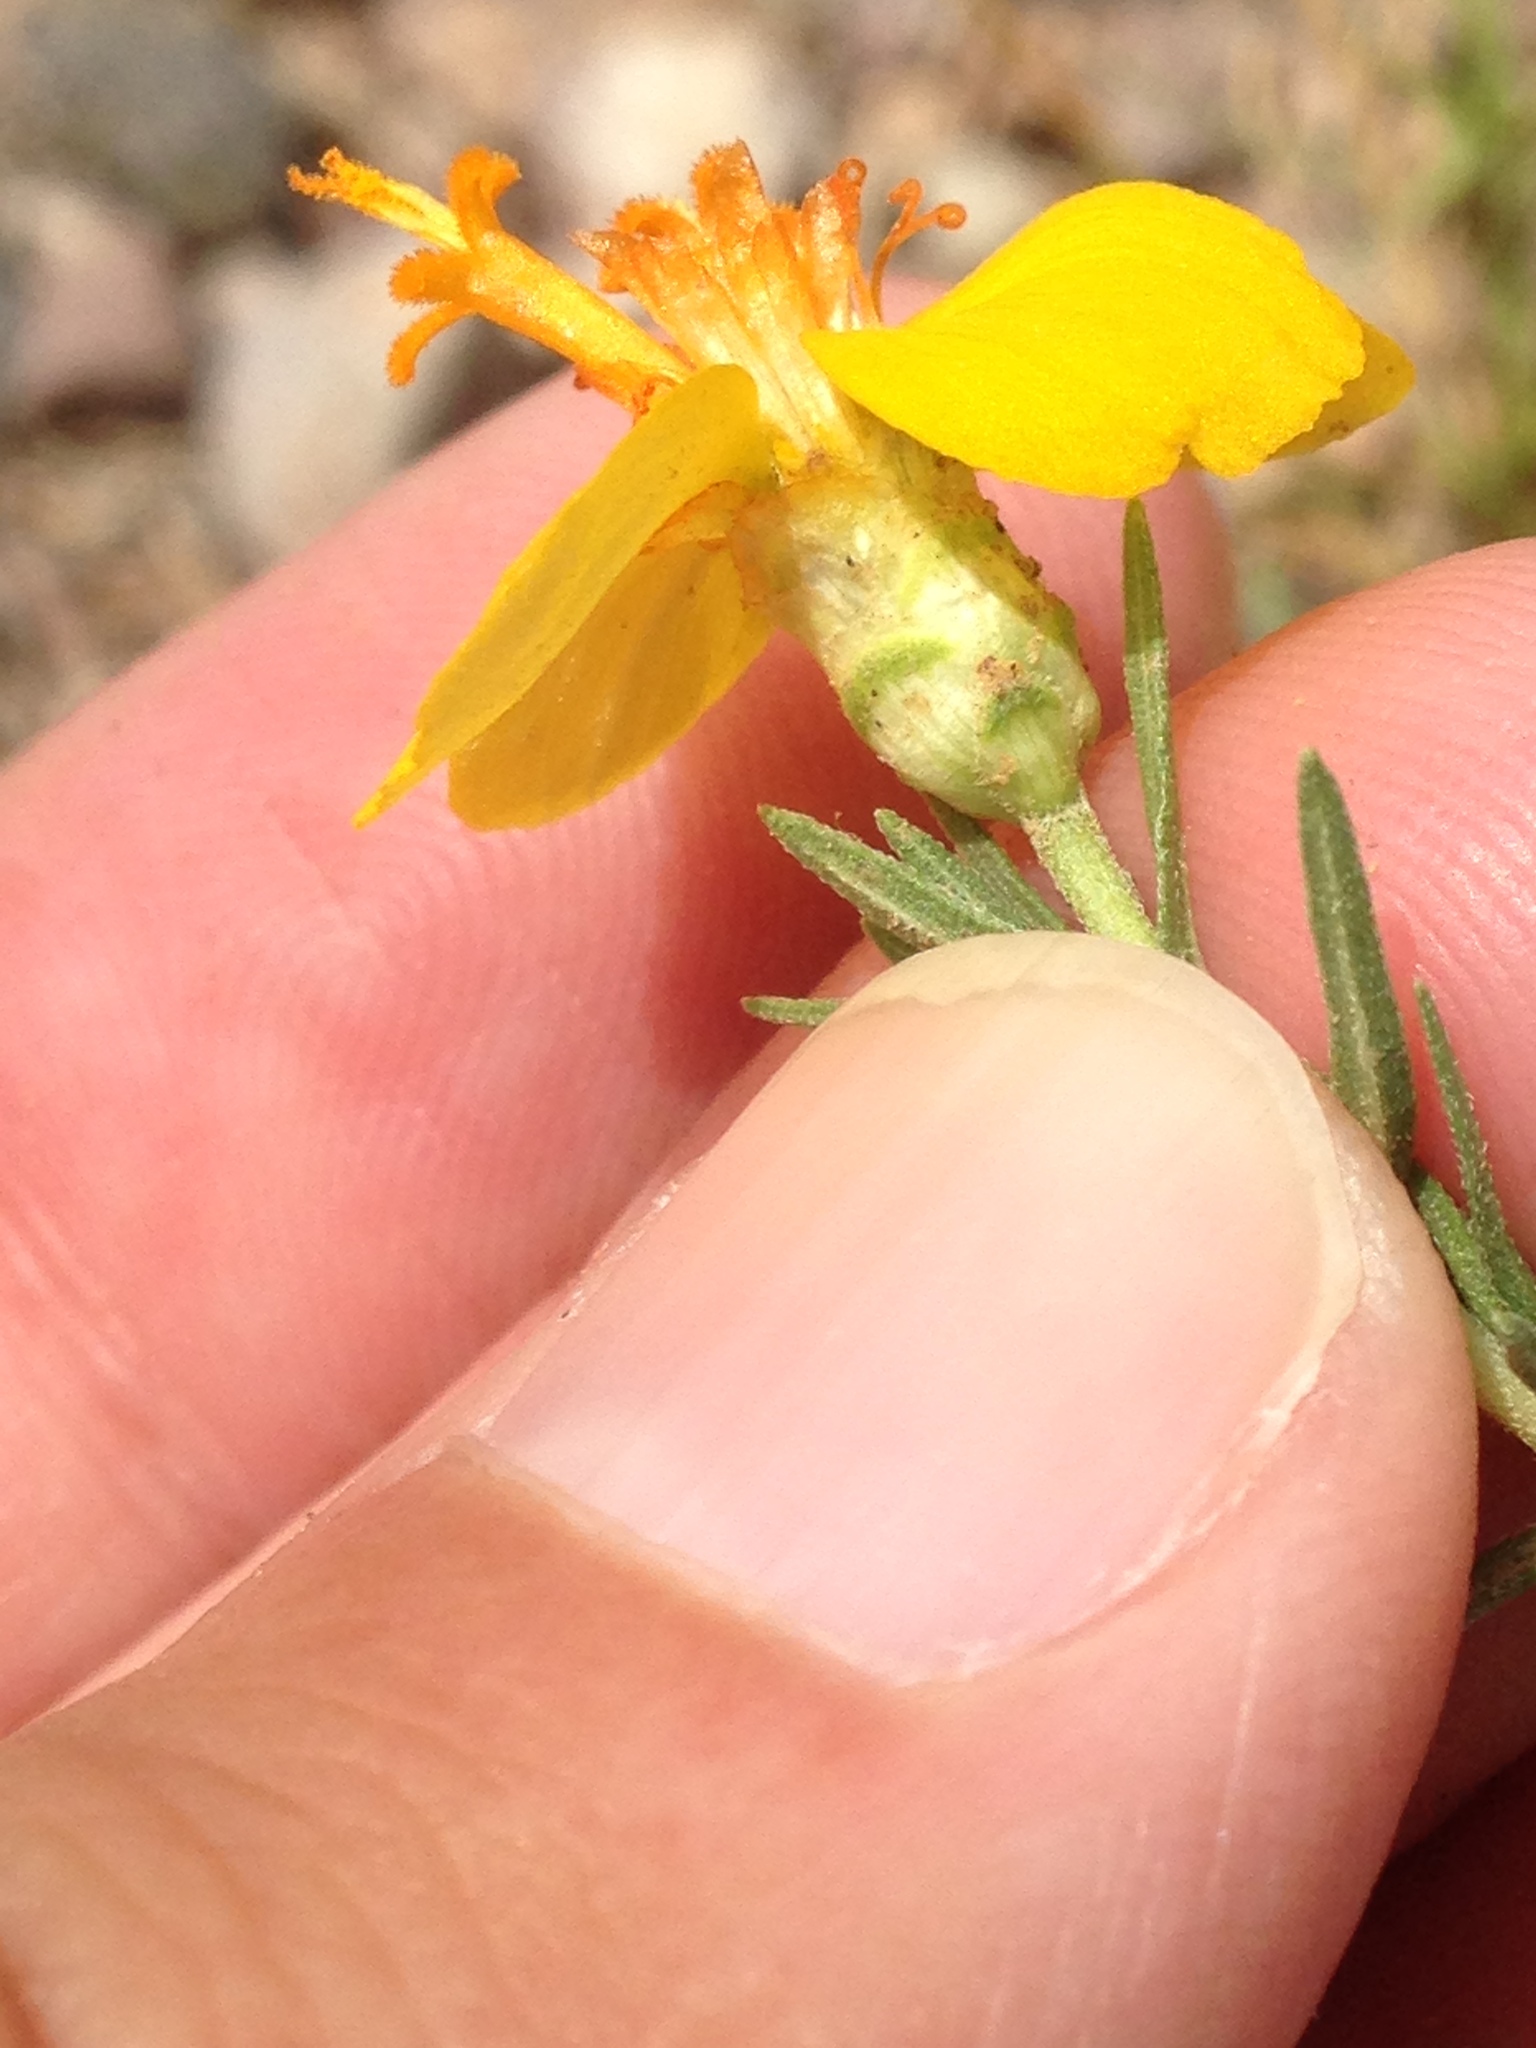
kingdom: Plantae
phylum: Tracheophyta
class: Magnoliopsida
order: Asterales
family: Asteraceae
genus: Zinnia
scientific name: Zinnia grandiflora
